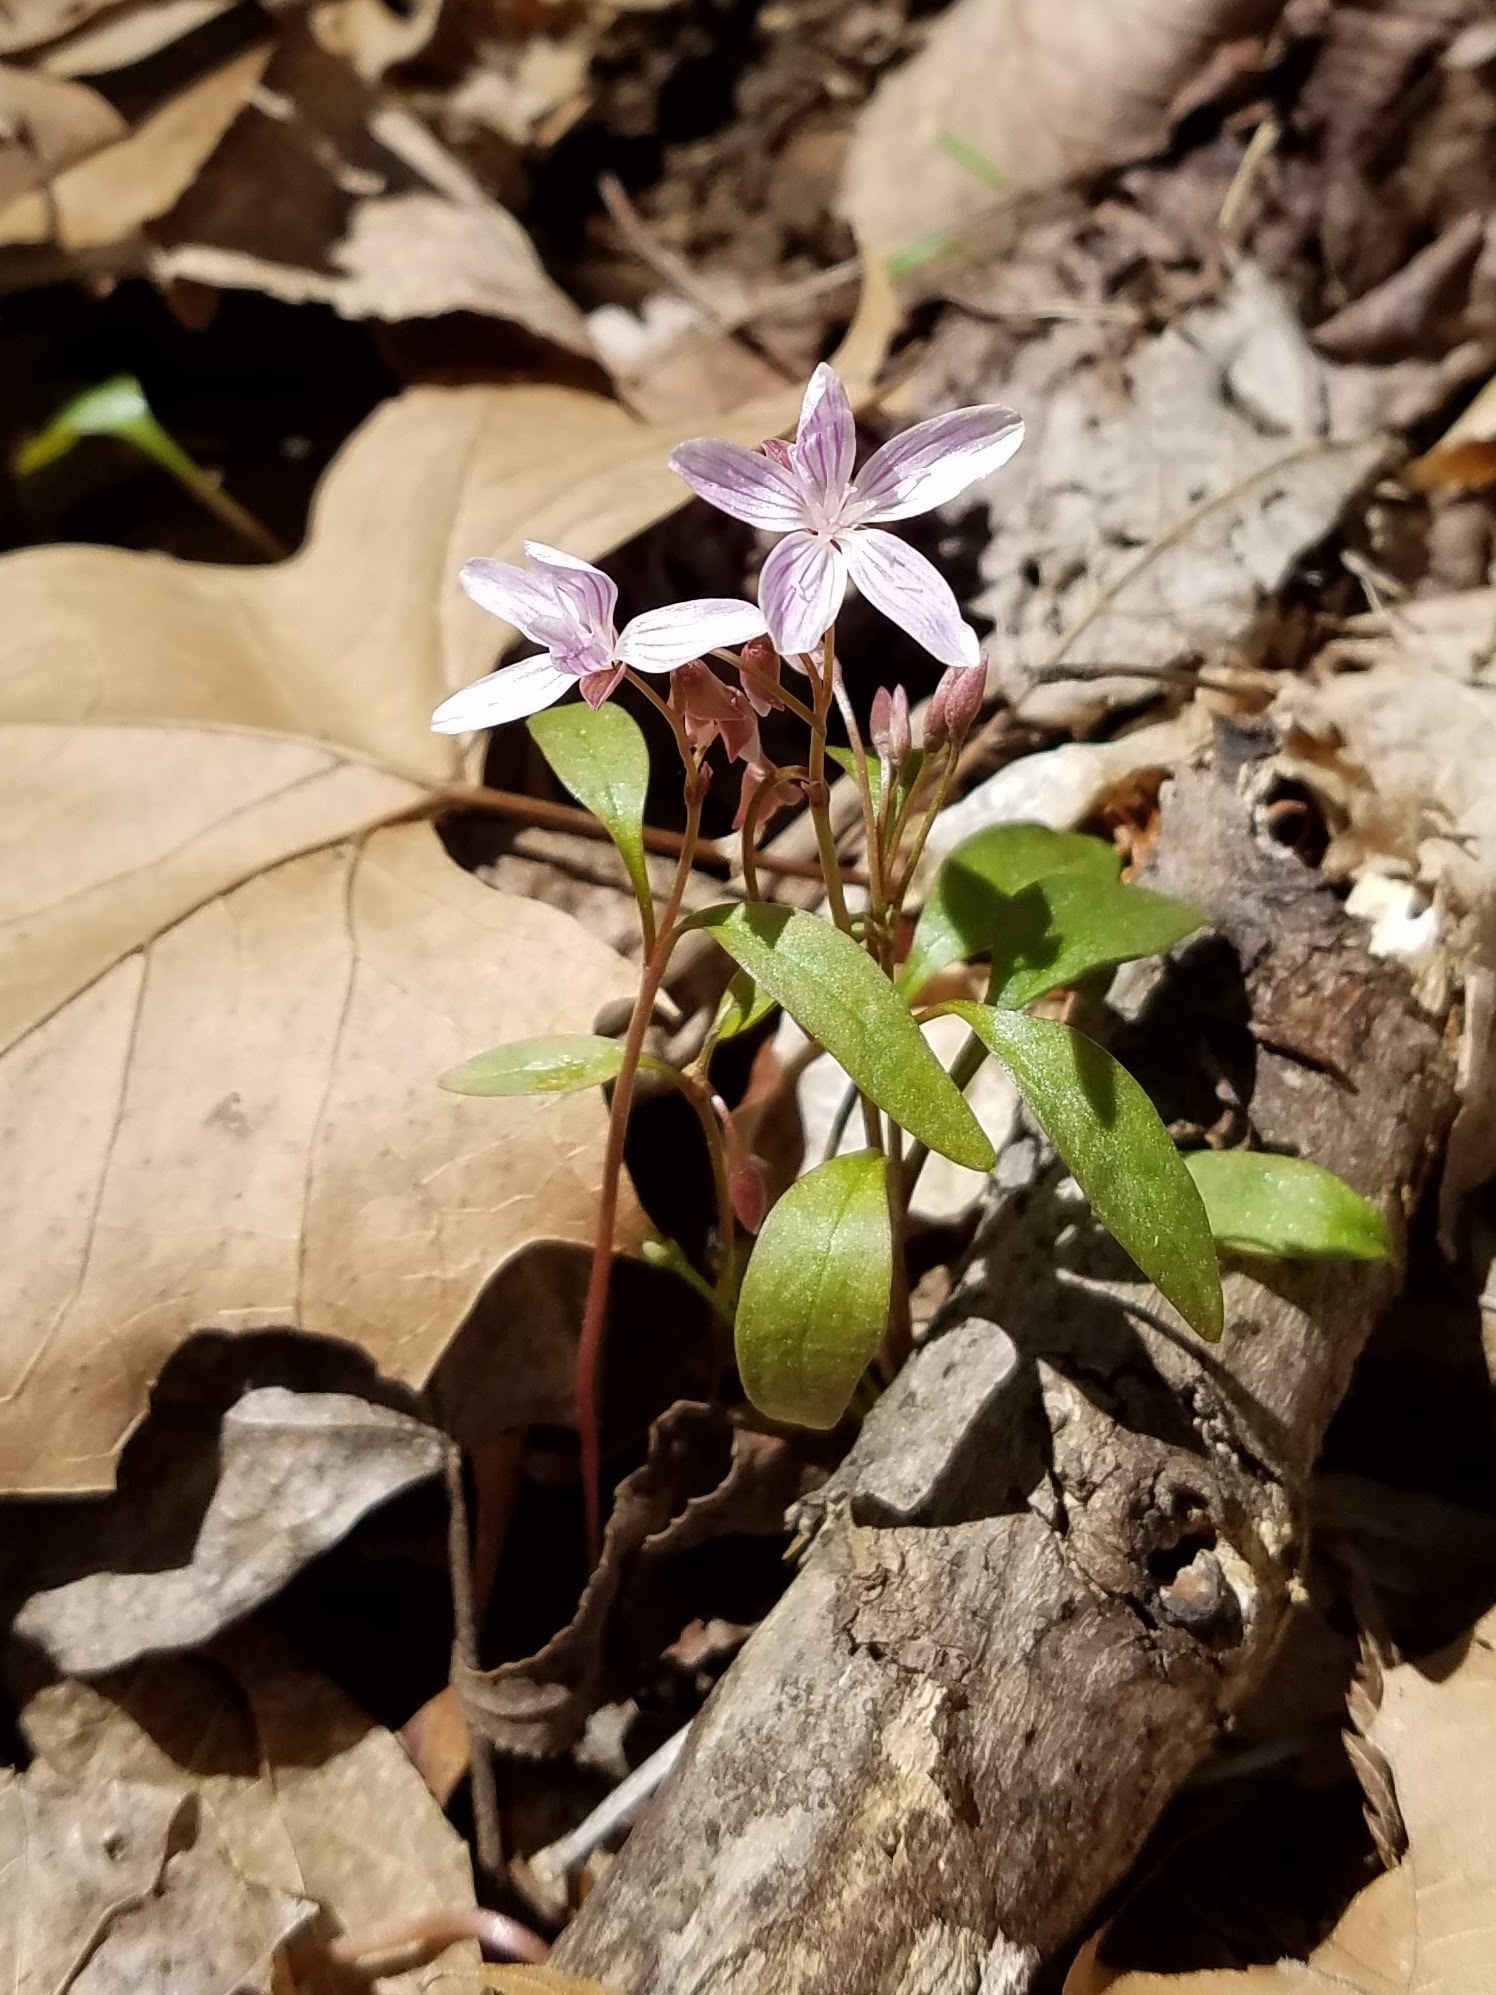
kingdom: Plantae
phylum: Tracheophyta
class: Magnoliopsida
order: Caryophyllales
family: Montiaceae
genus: Claytonia
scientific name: Claytonia caroliniana
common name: Carolina spring beauty
